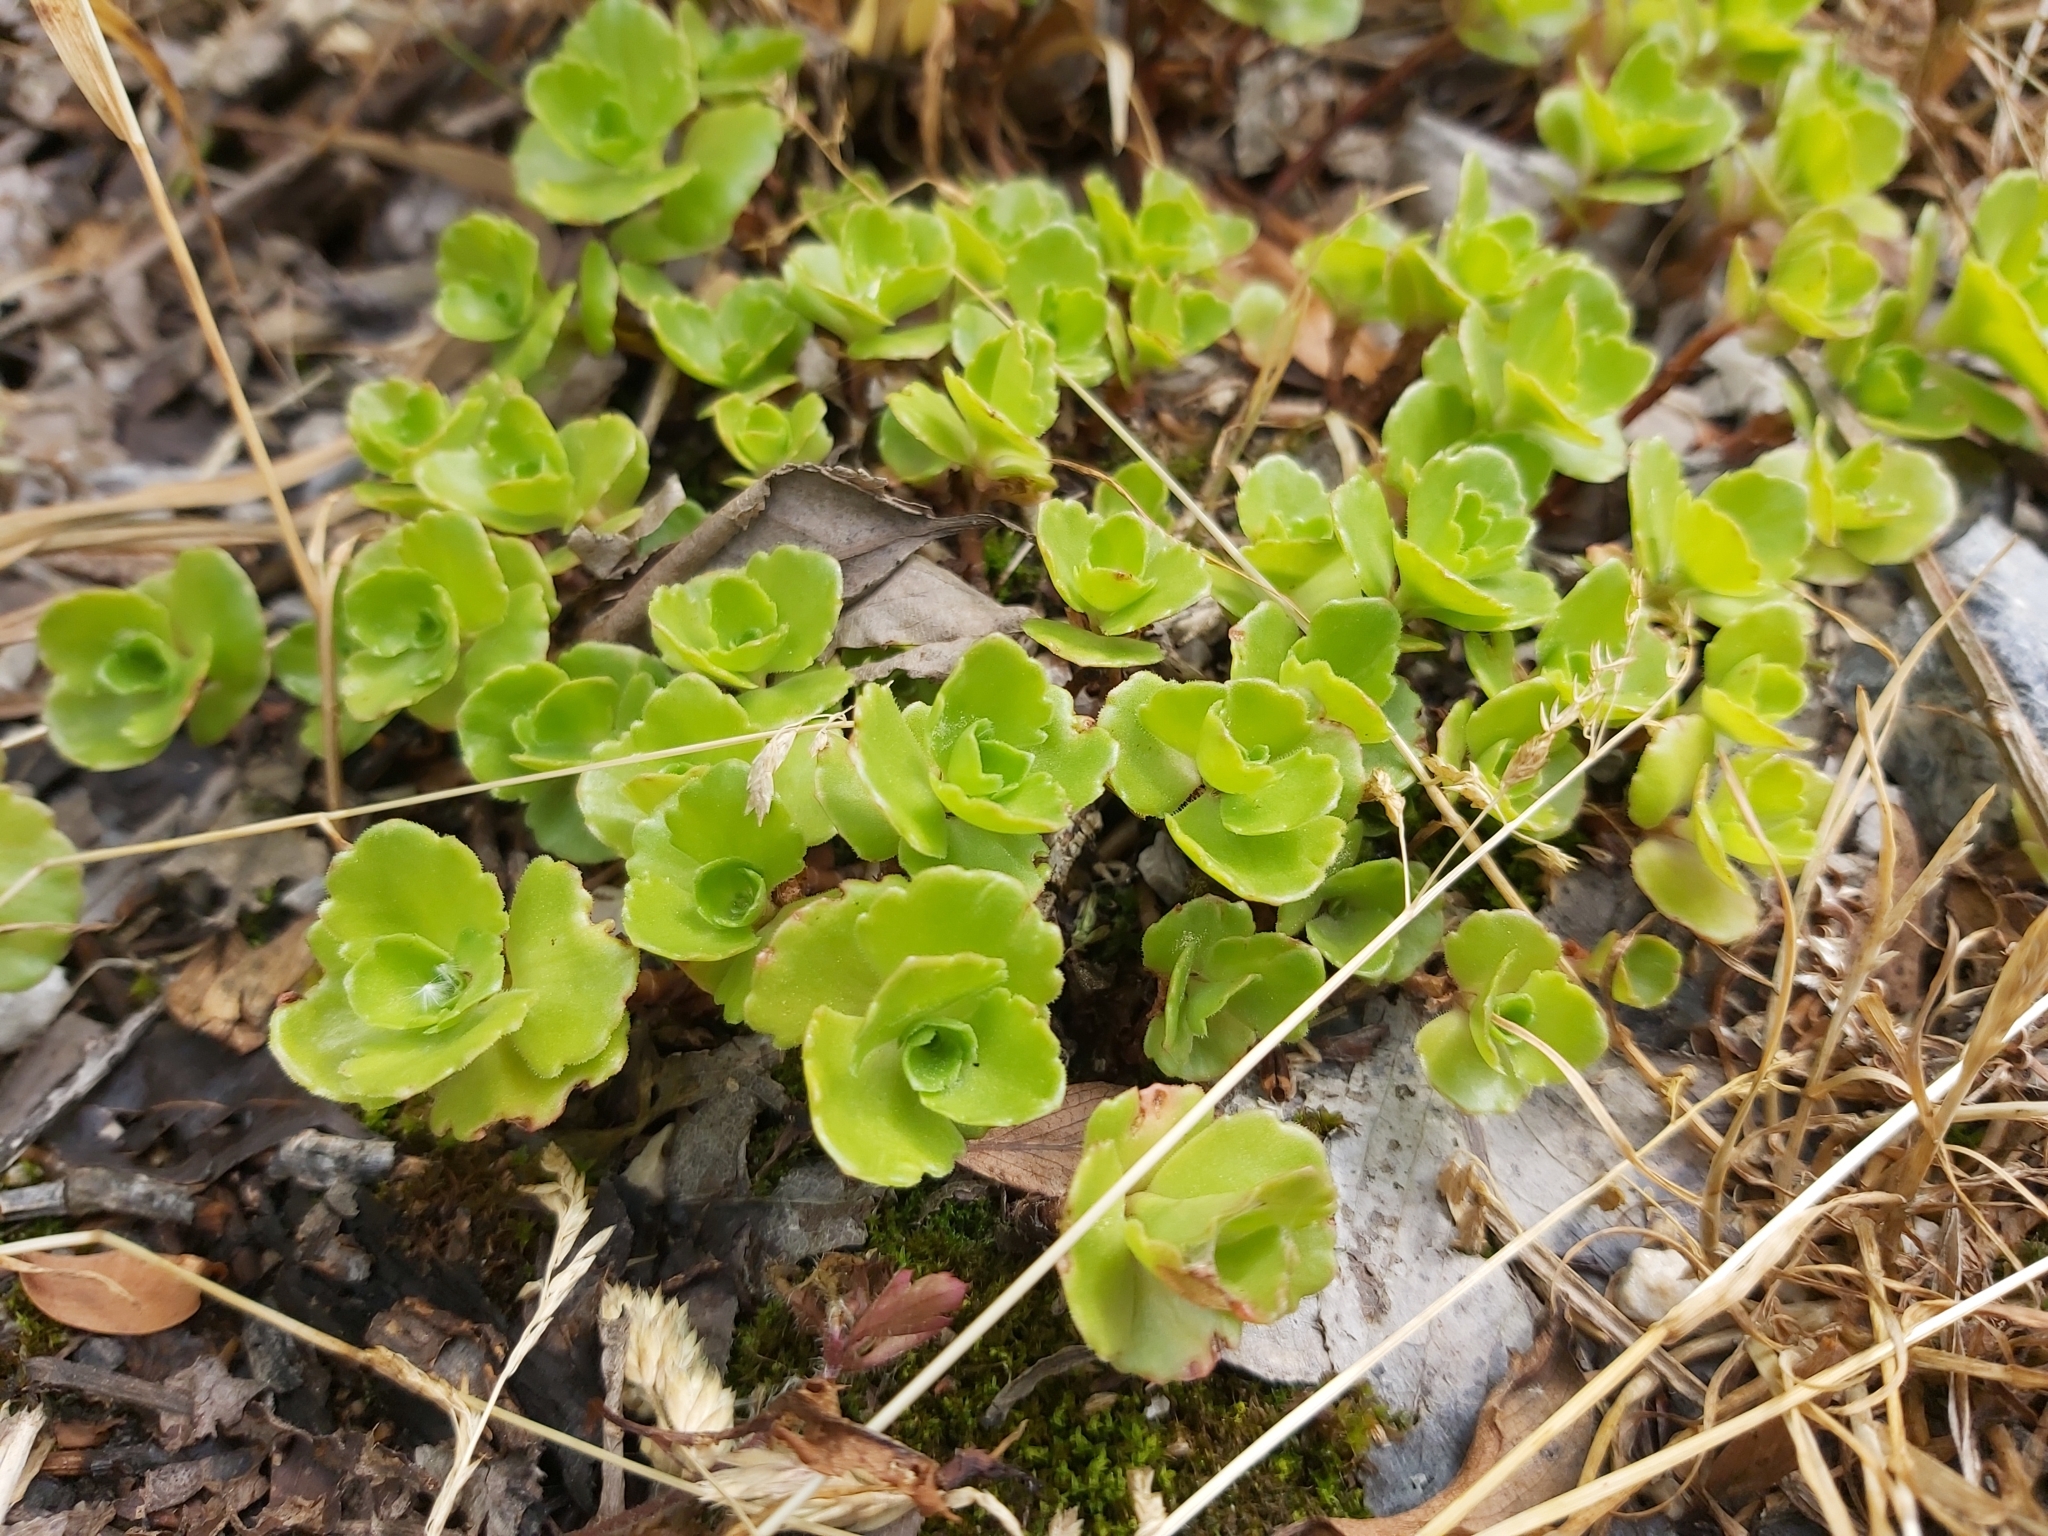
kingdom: Plantae
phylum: Tracheophyta
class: Magnoliopsida
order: Saxifragales
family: Crassulaceae
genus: Phedimus
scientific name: Phedimus spurius
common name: Caucasian stonecrop
